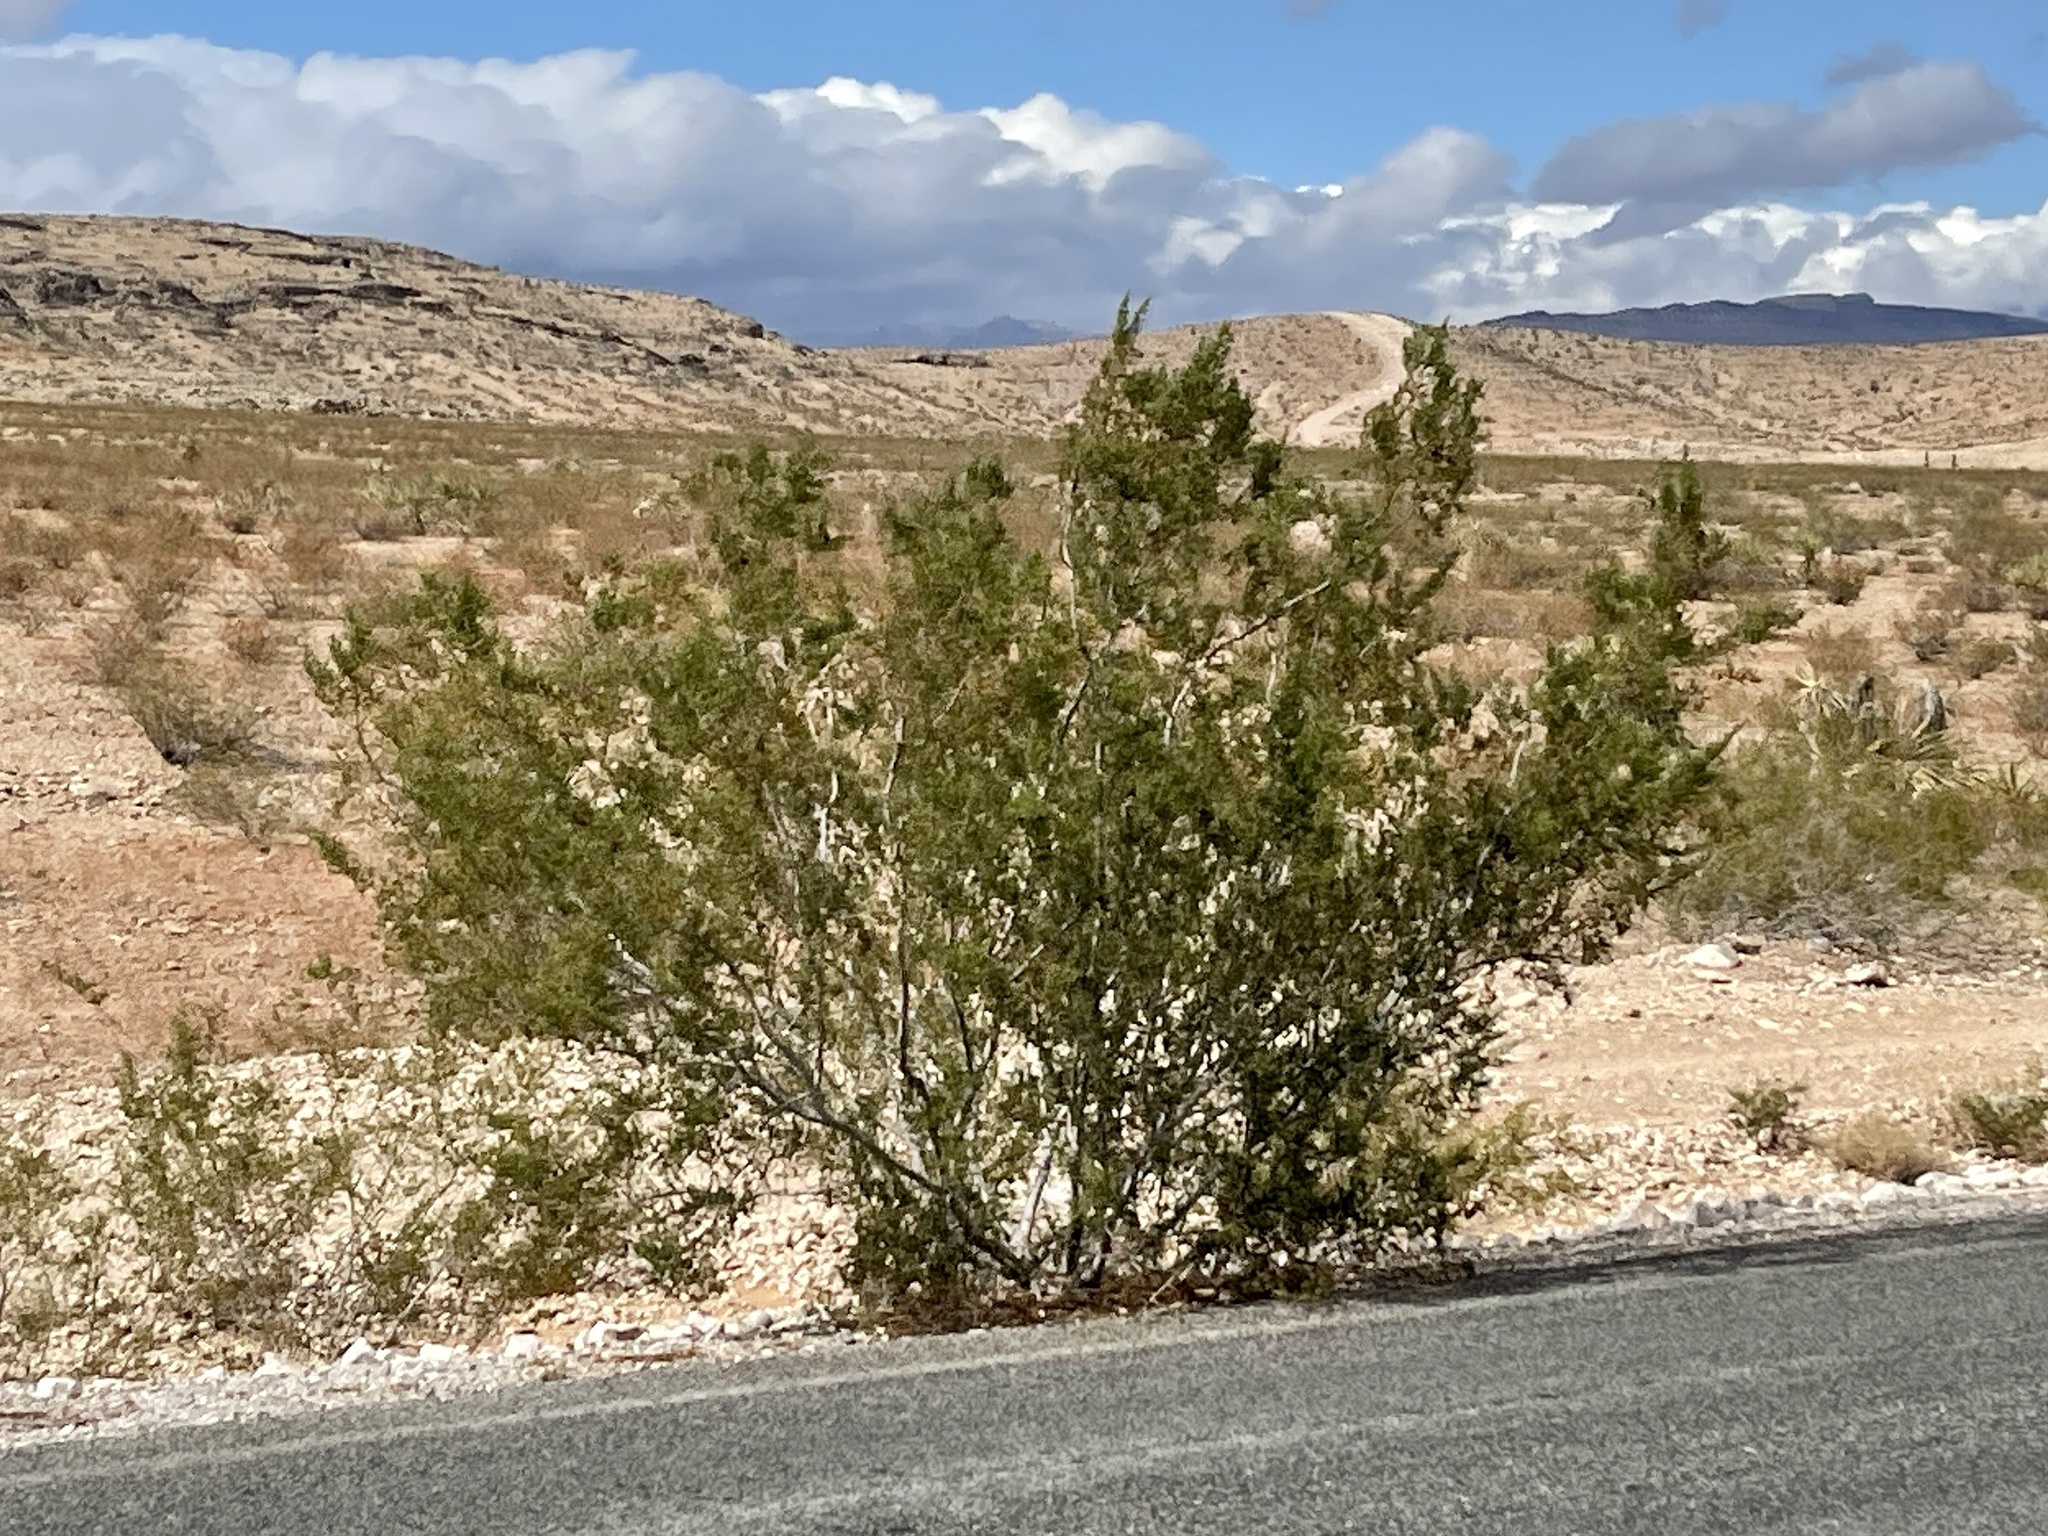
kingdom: Plantae
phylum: Tracheophyta
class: Magnoliopsida
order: Zygophyllales
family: Zygophyllaceae
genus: Larrea
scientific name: Larrea tridentata
